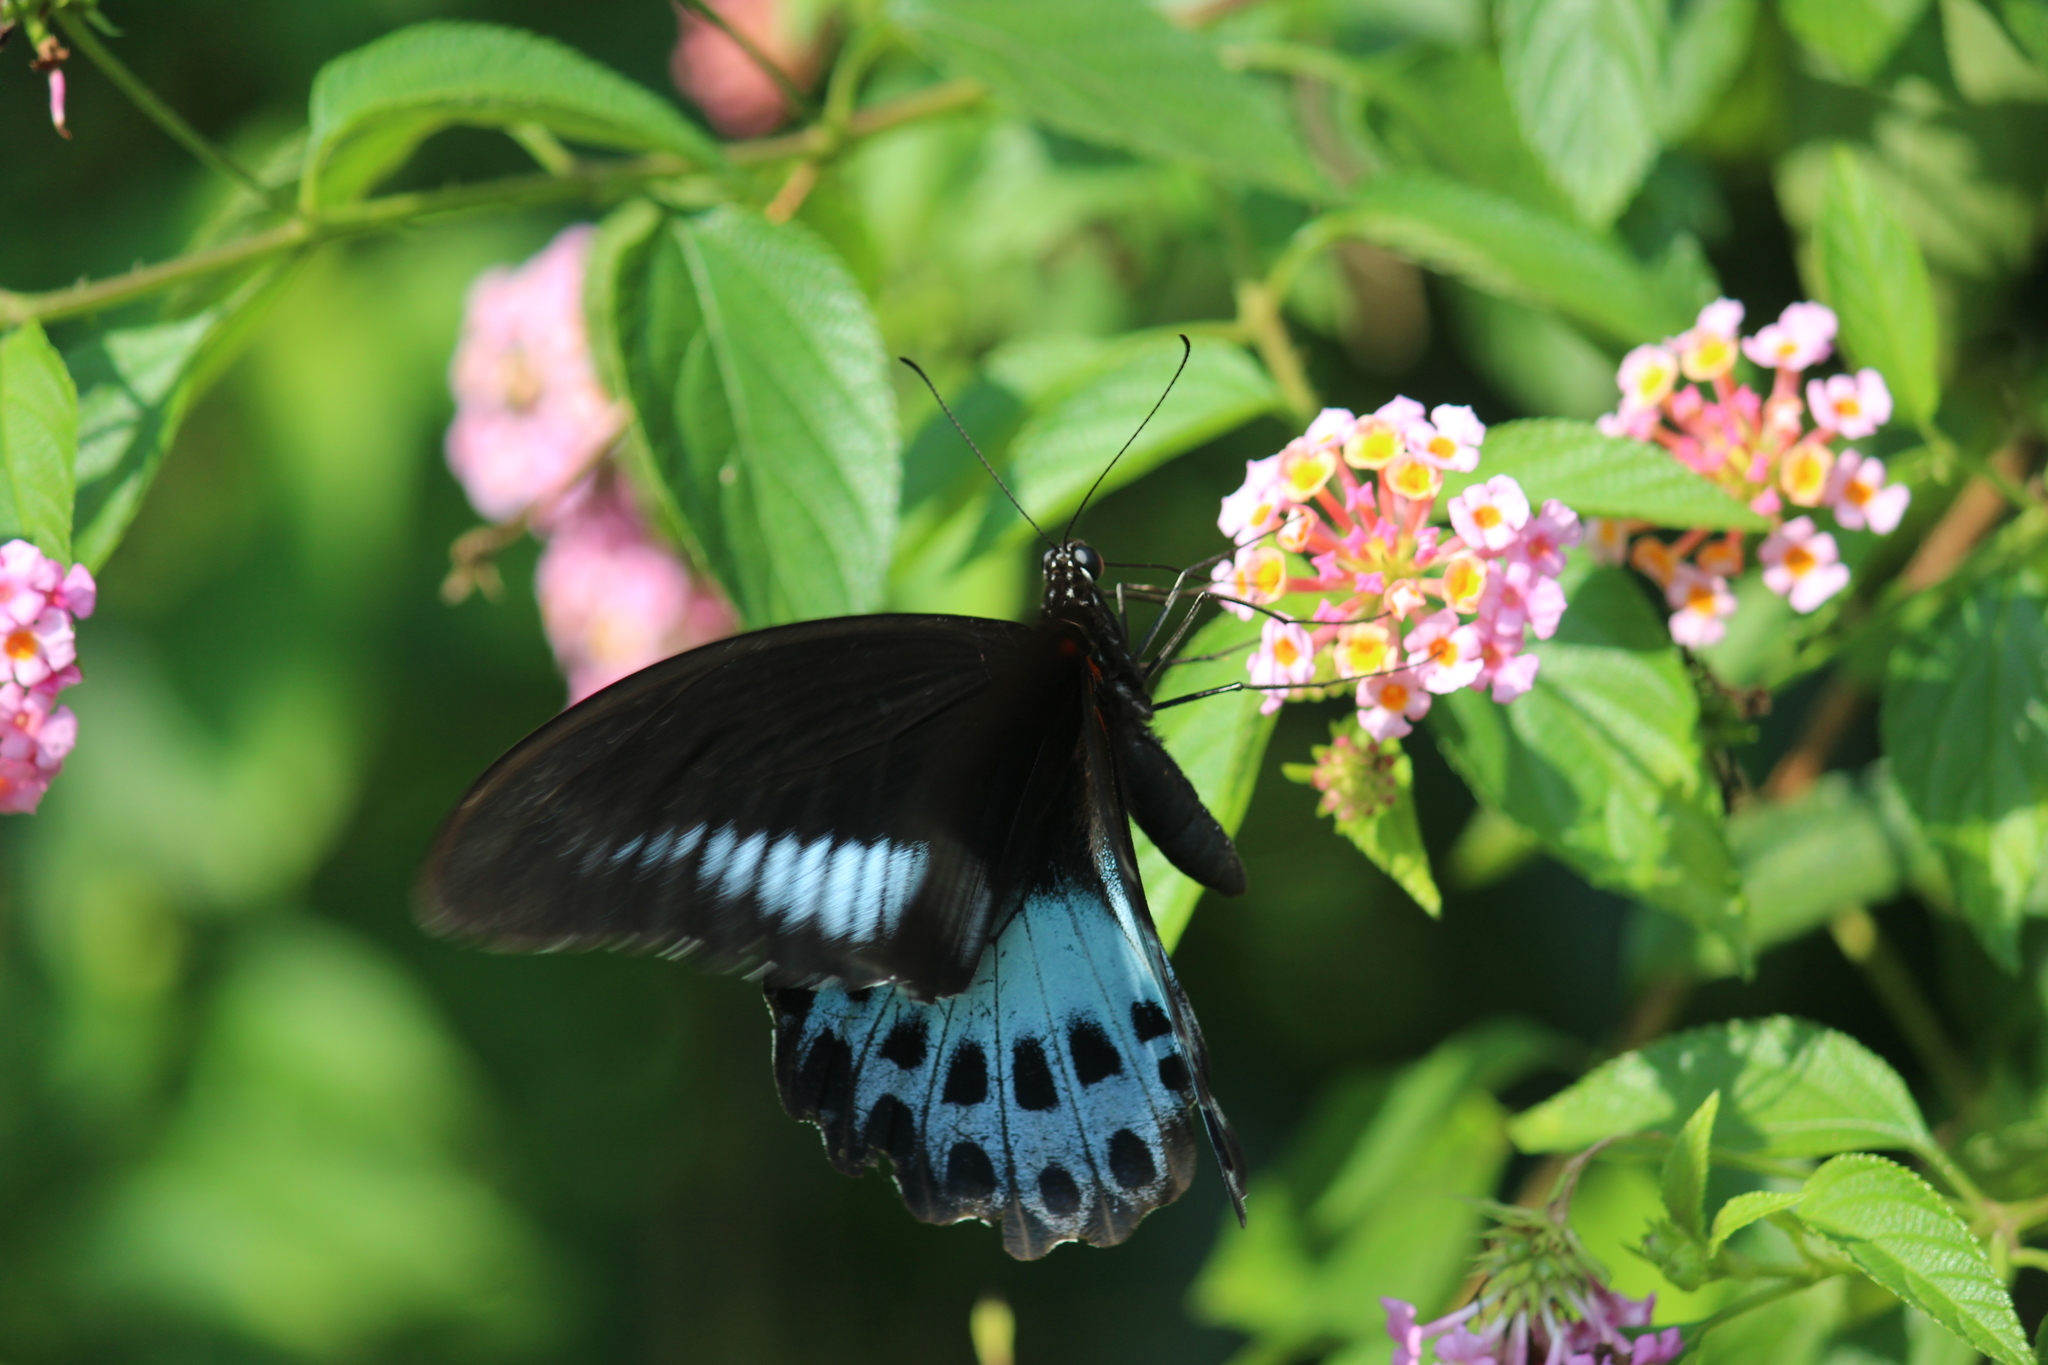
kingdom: Animalia
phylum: Arthropoda
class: Insecta
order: Lepidoptera
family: Papilionidae
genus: Papilio
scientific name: Papilio memnon
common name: Great mormon
